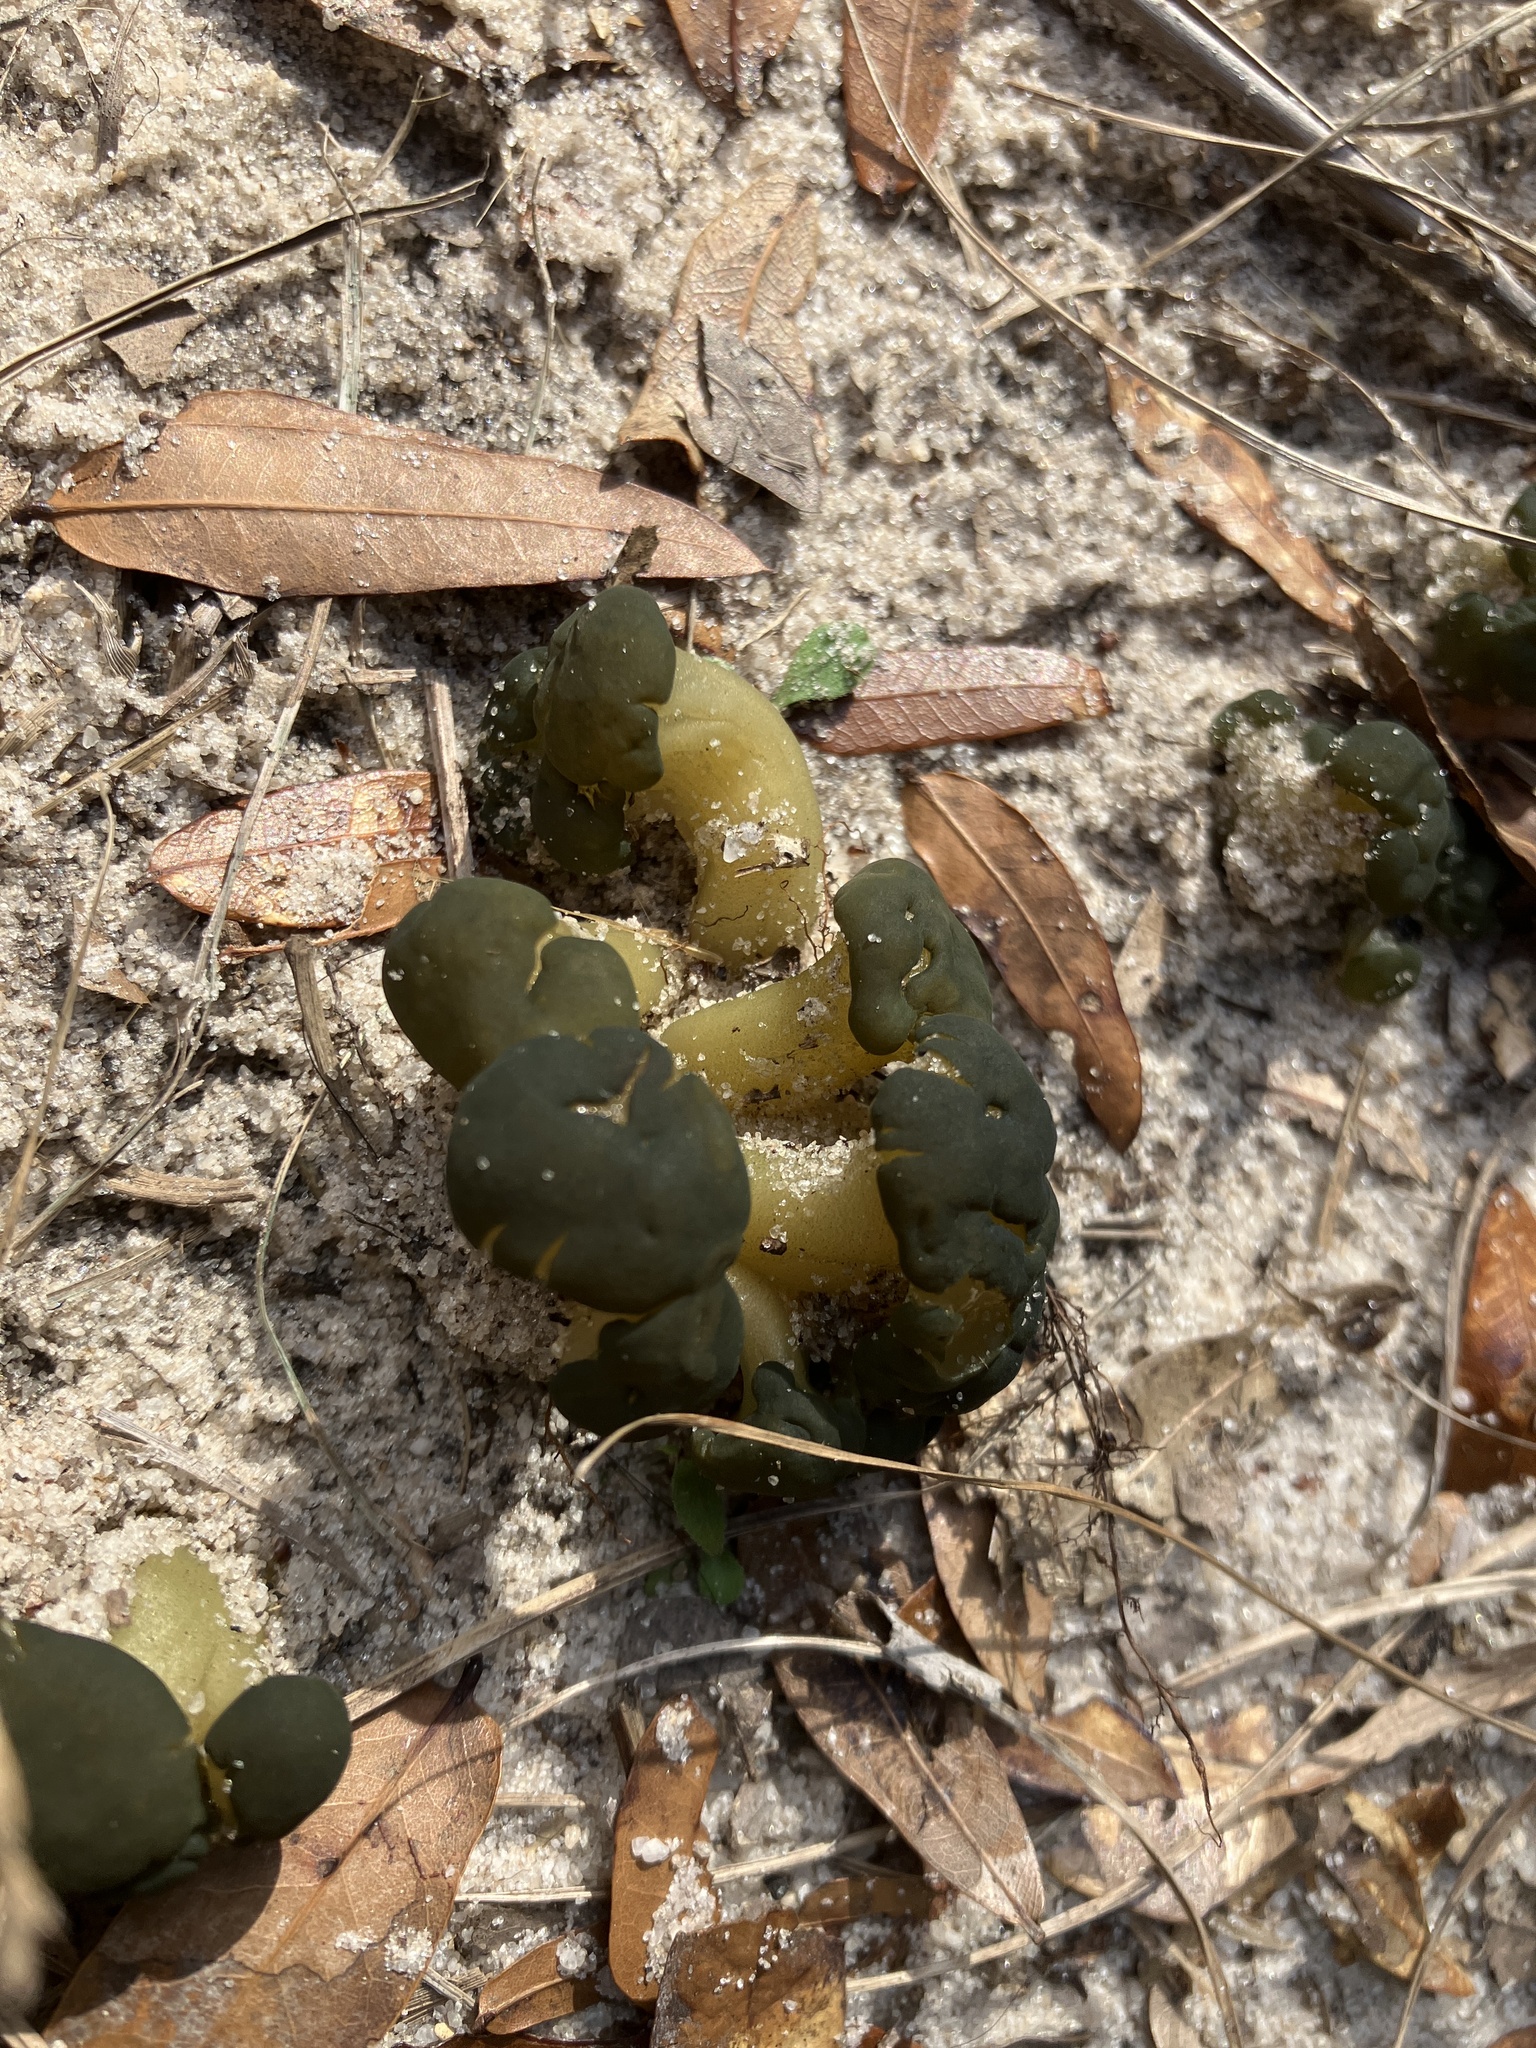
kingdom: Fungi
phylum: Ascomycota
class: Leotiomycetes
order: Leotiales
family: Leotiaceae
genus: Leotia
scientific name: Leotia lubrica
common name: Jellybaby
